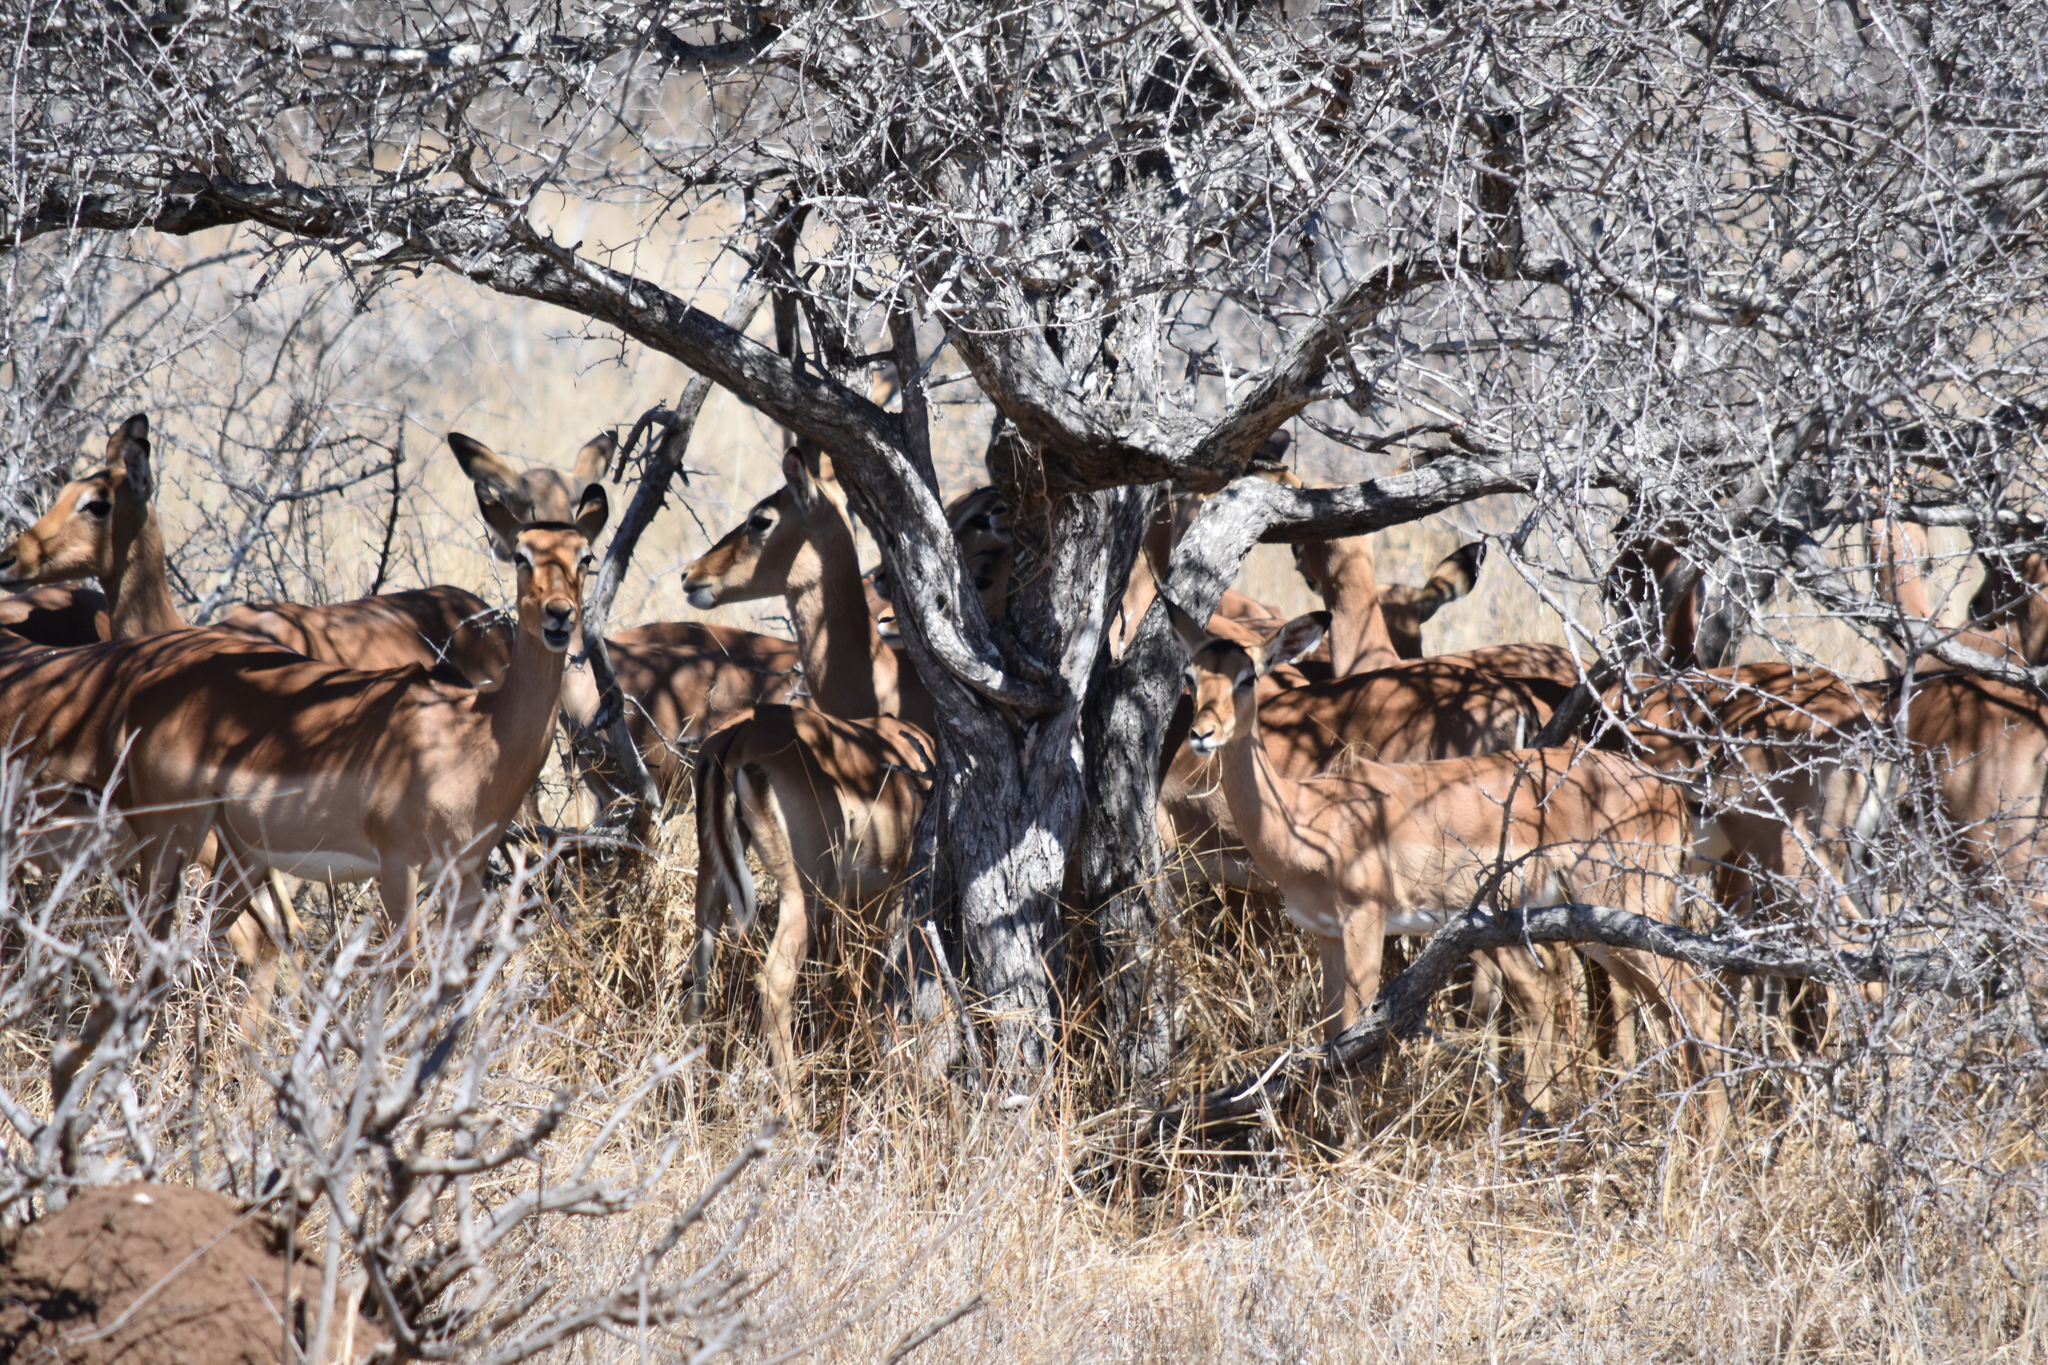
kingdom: Animalia
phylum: Chordata
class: Mammalia
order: Artiodactyla
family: Bovidae
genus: Aepyceros
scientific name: Aepyceros melampus
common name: Impala
